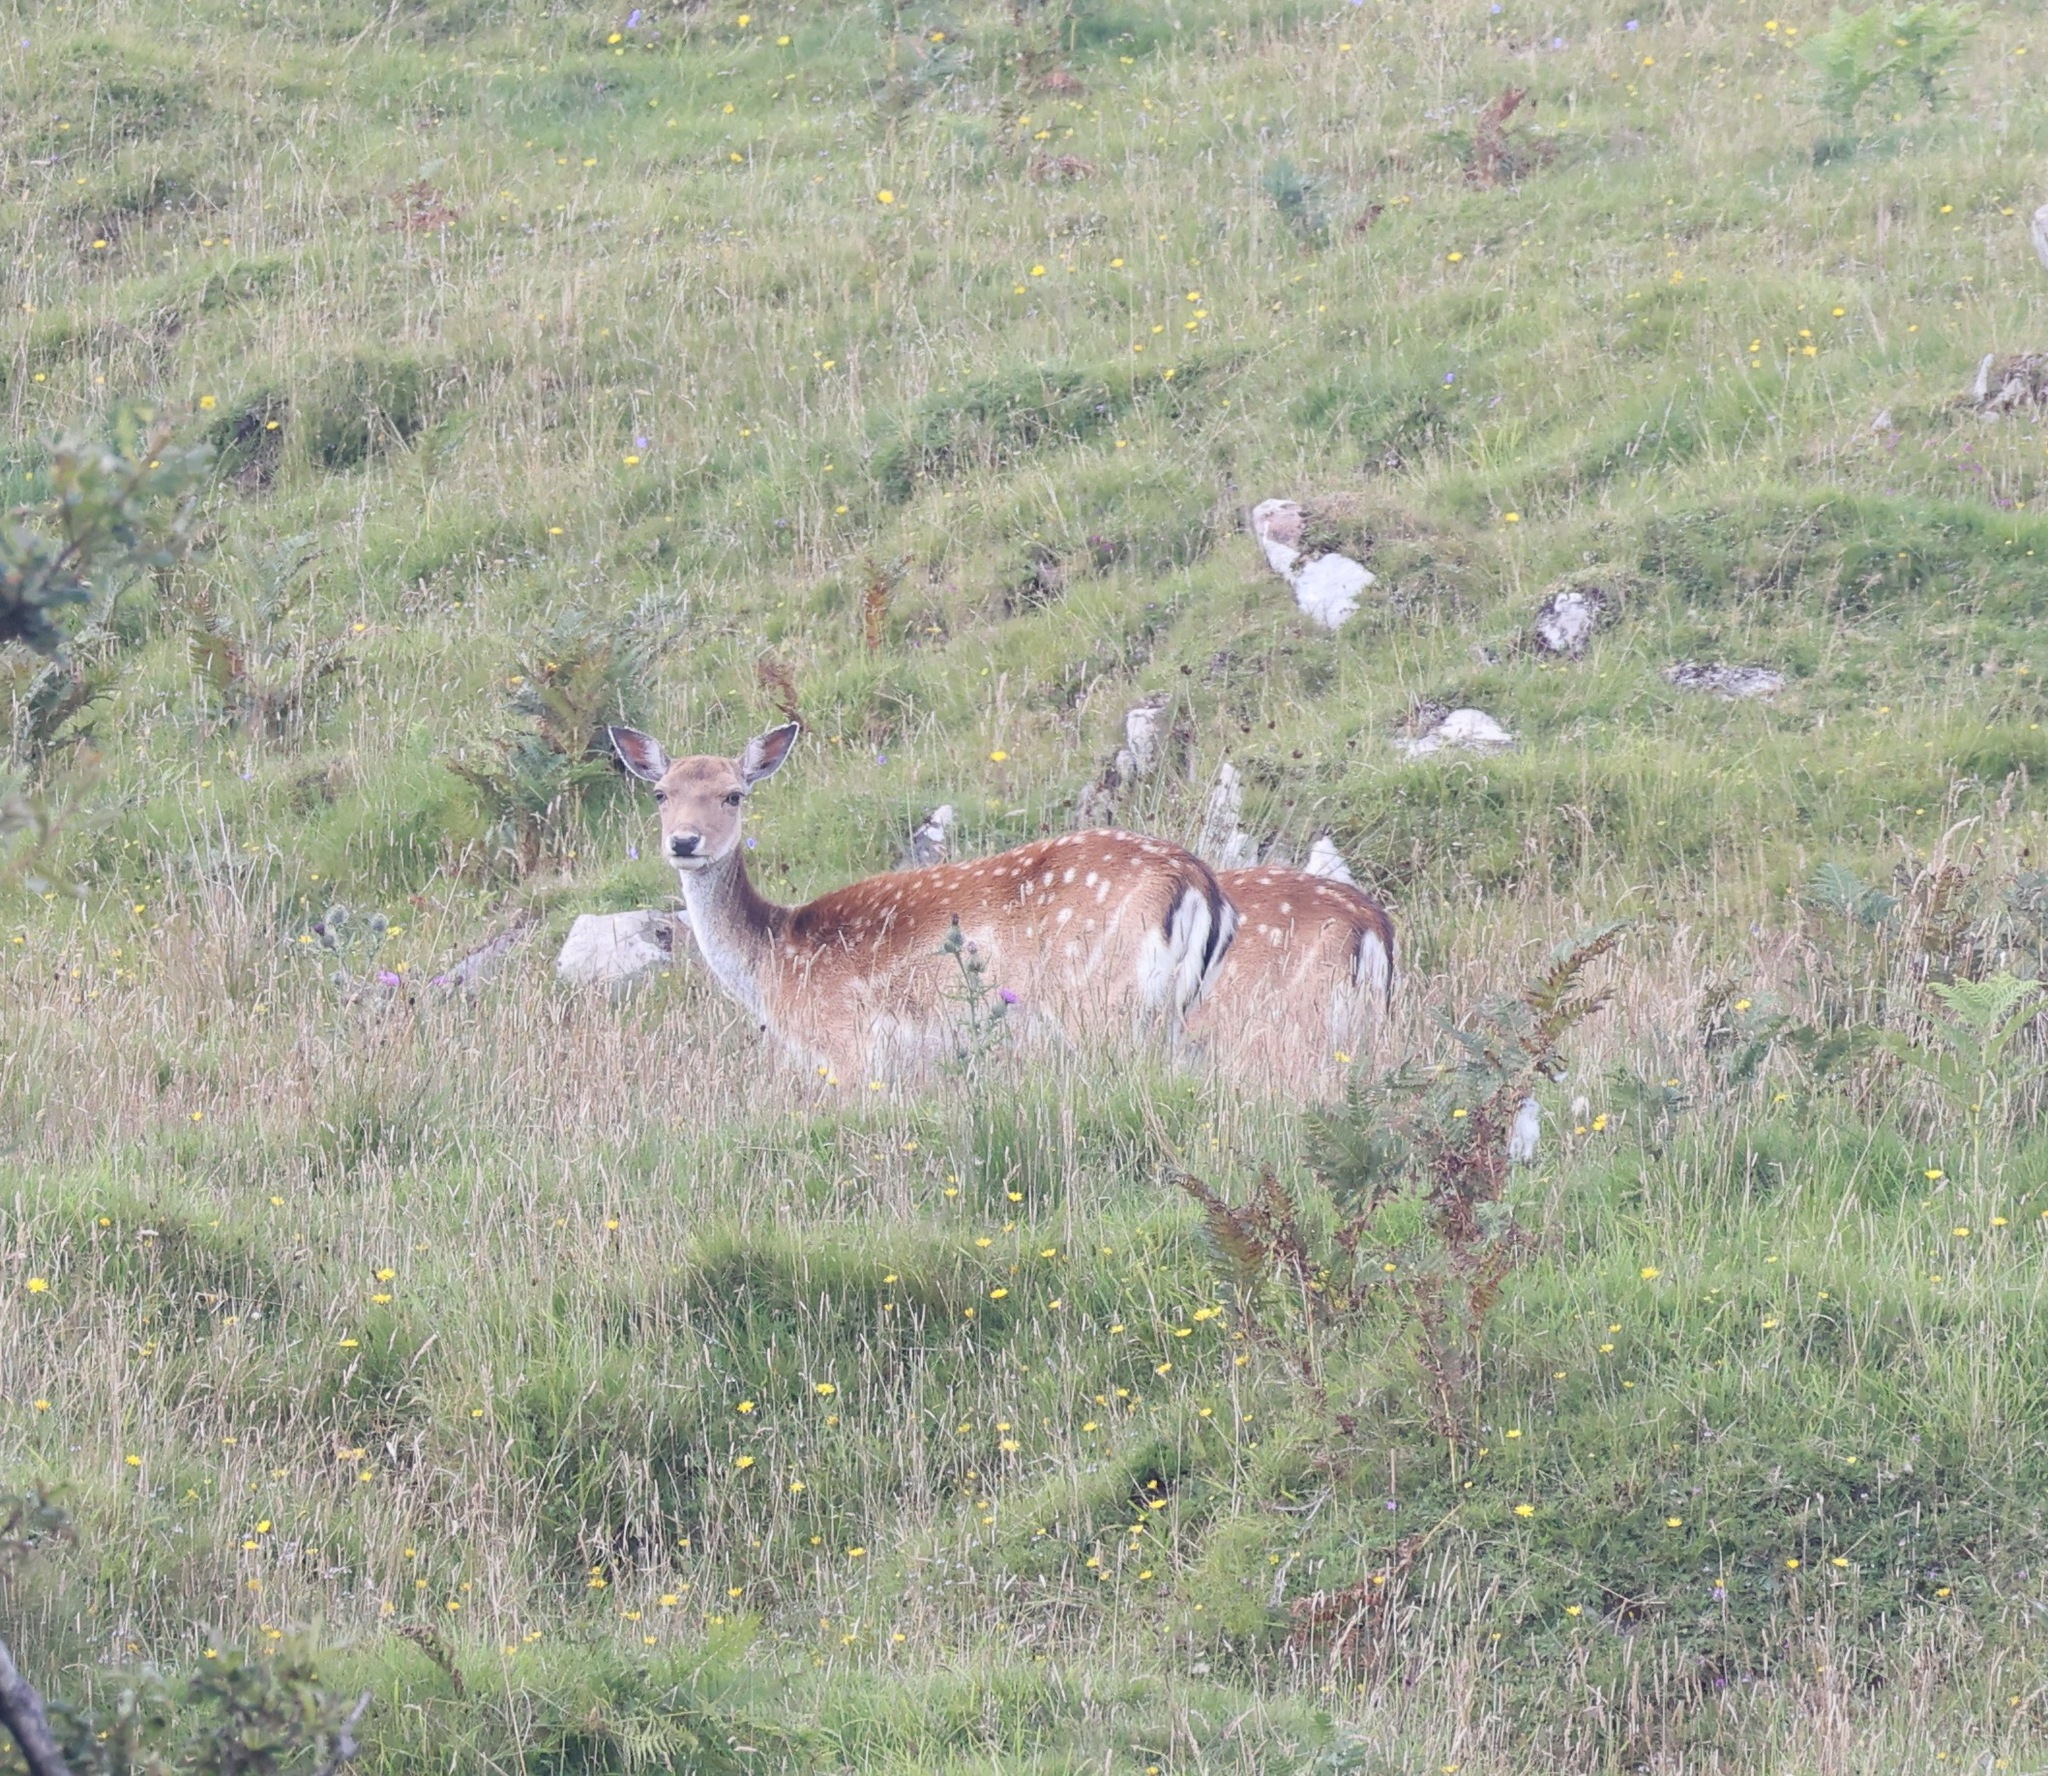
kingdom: Animalia
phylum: Chordata
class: Mammalia
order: Artiodactyla
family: Cervidae
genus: Dama
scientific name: Dama dama
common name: Fallow deer
